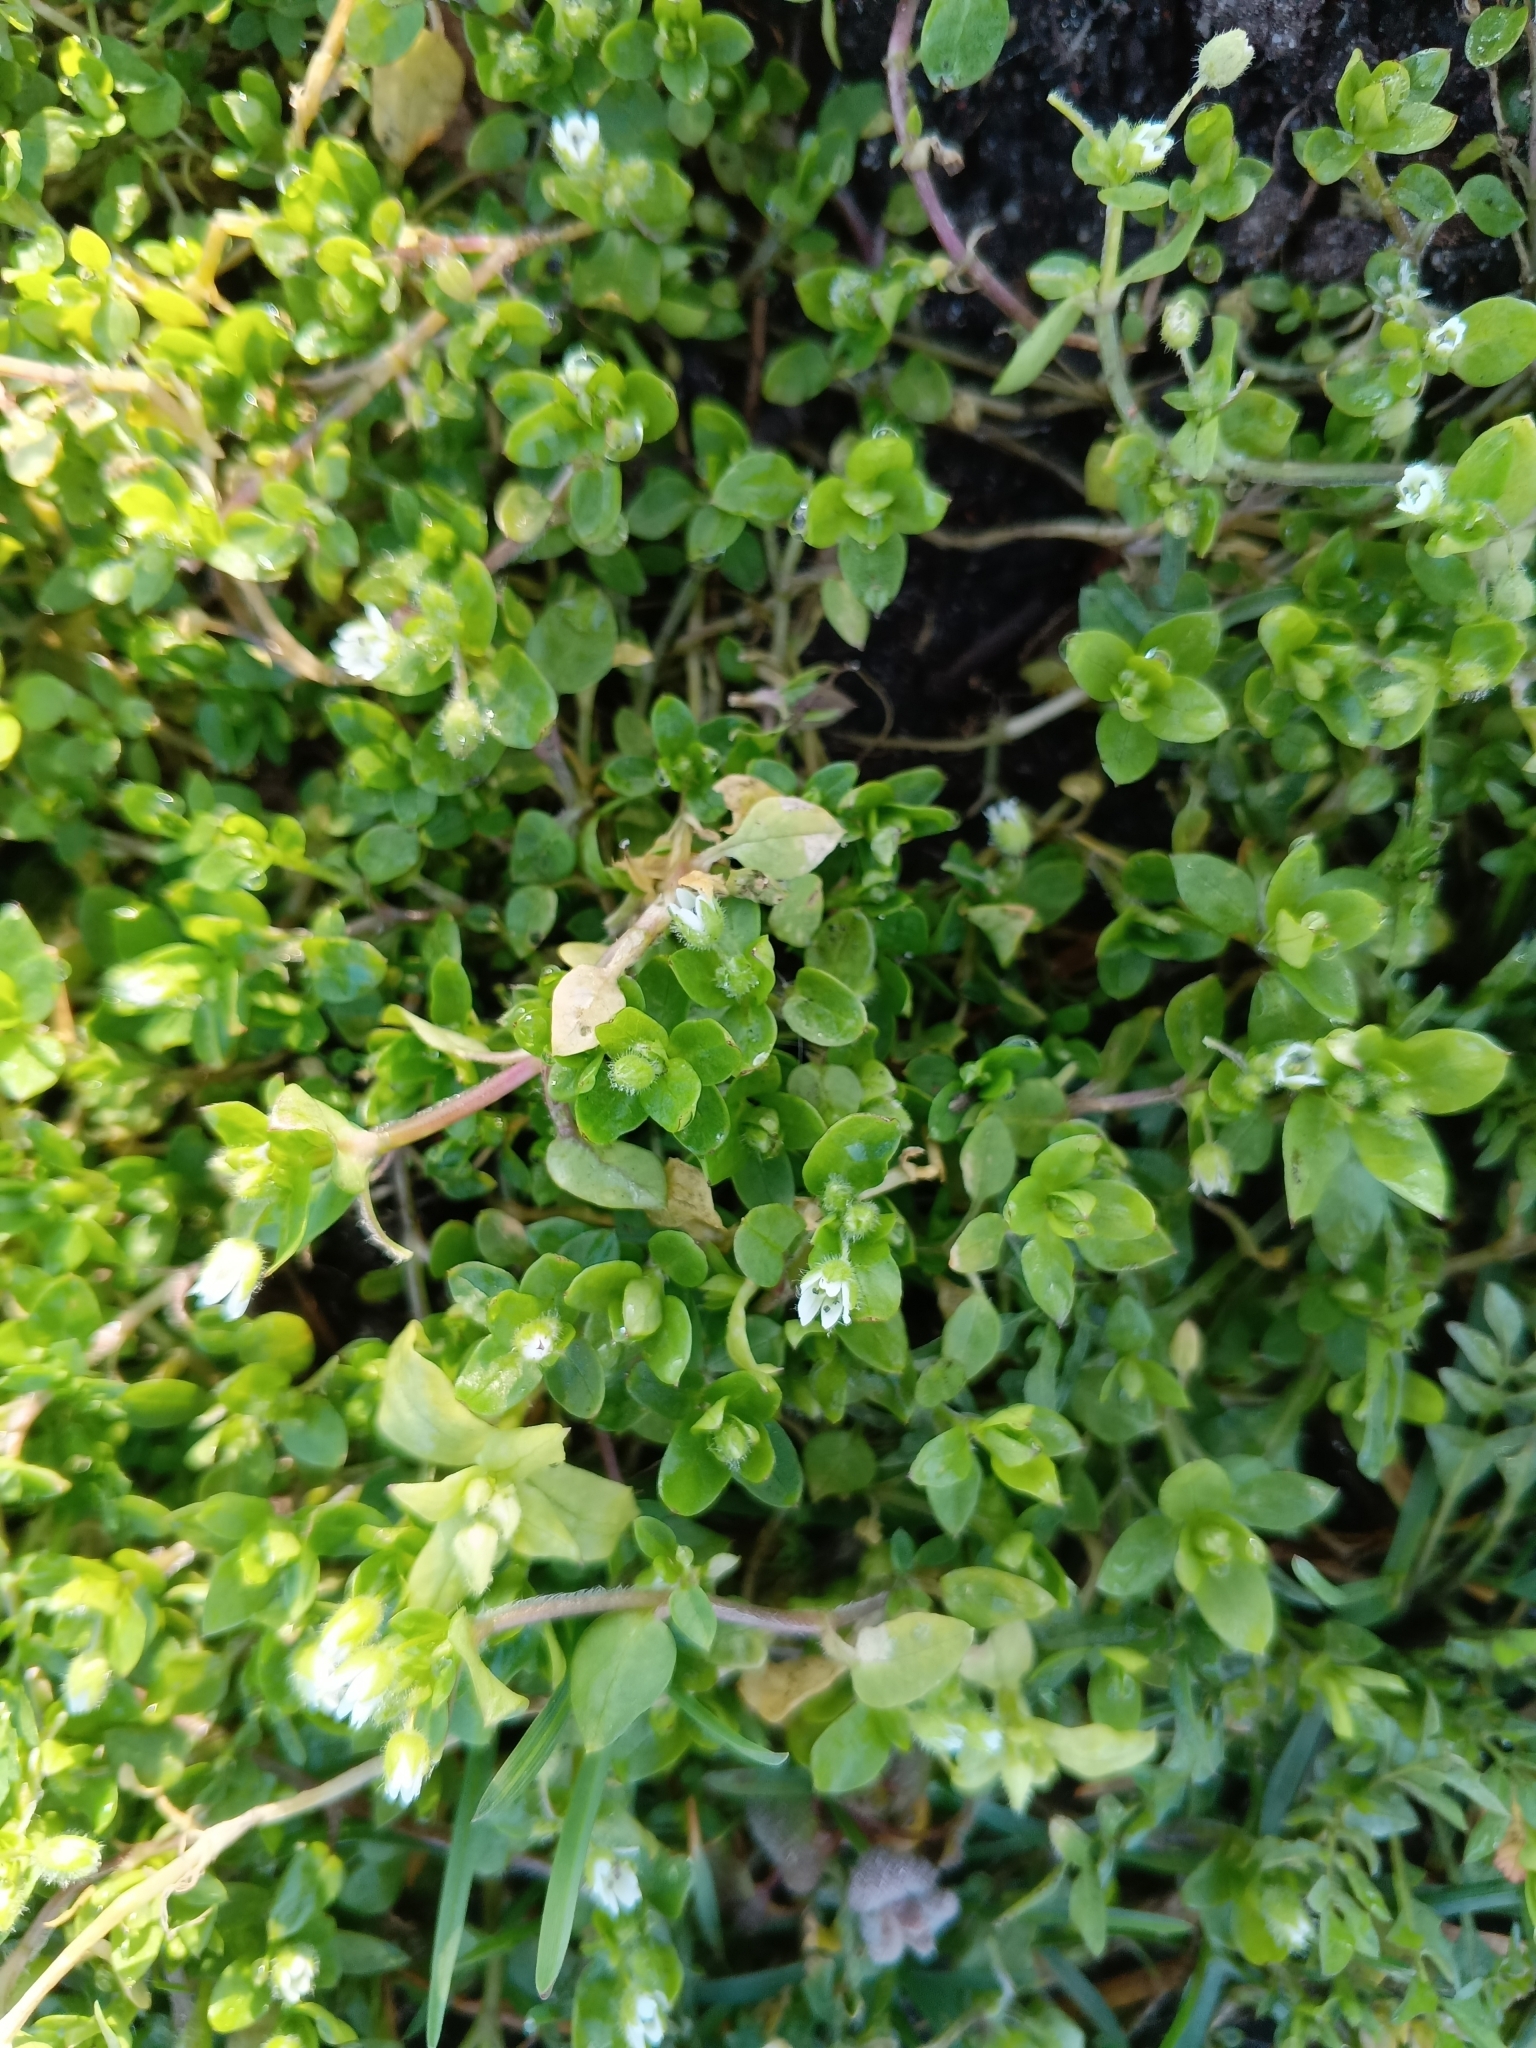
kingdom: Plantae
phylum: Tracheophyta
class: Magnoliopsida
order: Caryophyllales
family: Caryophyllaceae
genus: Stellaria
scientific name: Stellaria media
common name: Common chickweed
